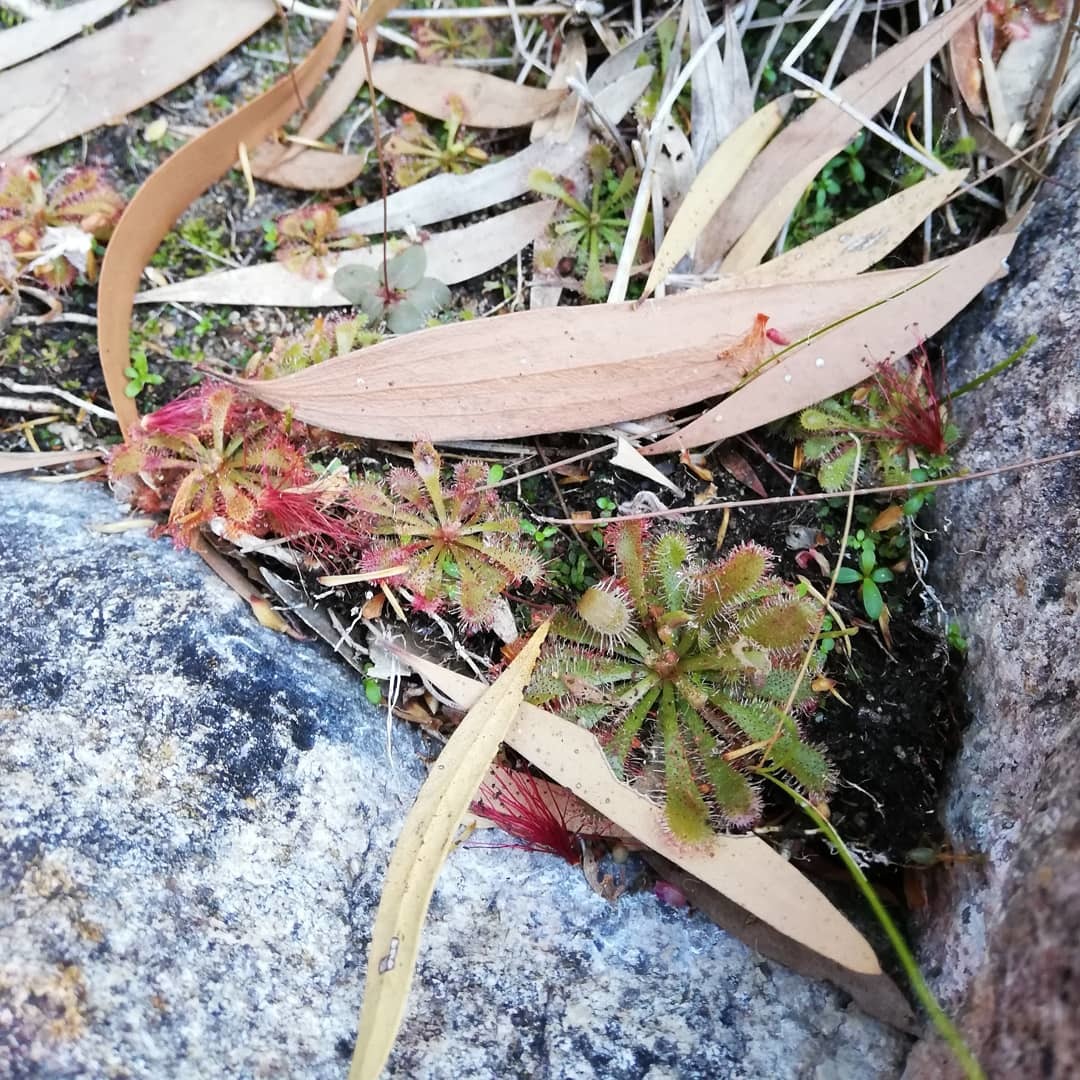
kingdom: Plantae
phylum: Tracheophyta
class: Magnoliopsida
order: Caryophyllales
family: Droseraceae
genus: Drosera
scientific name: Drosera spatulata
